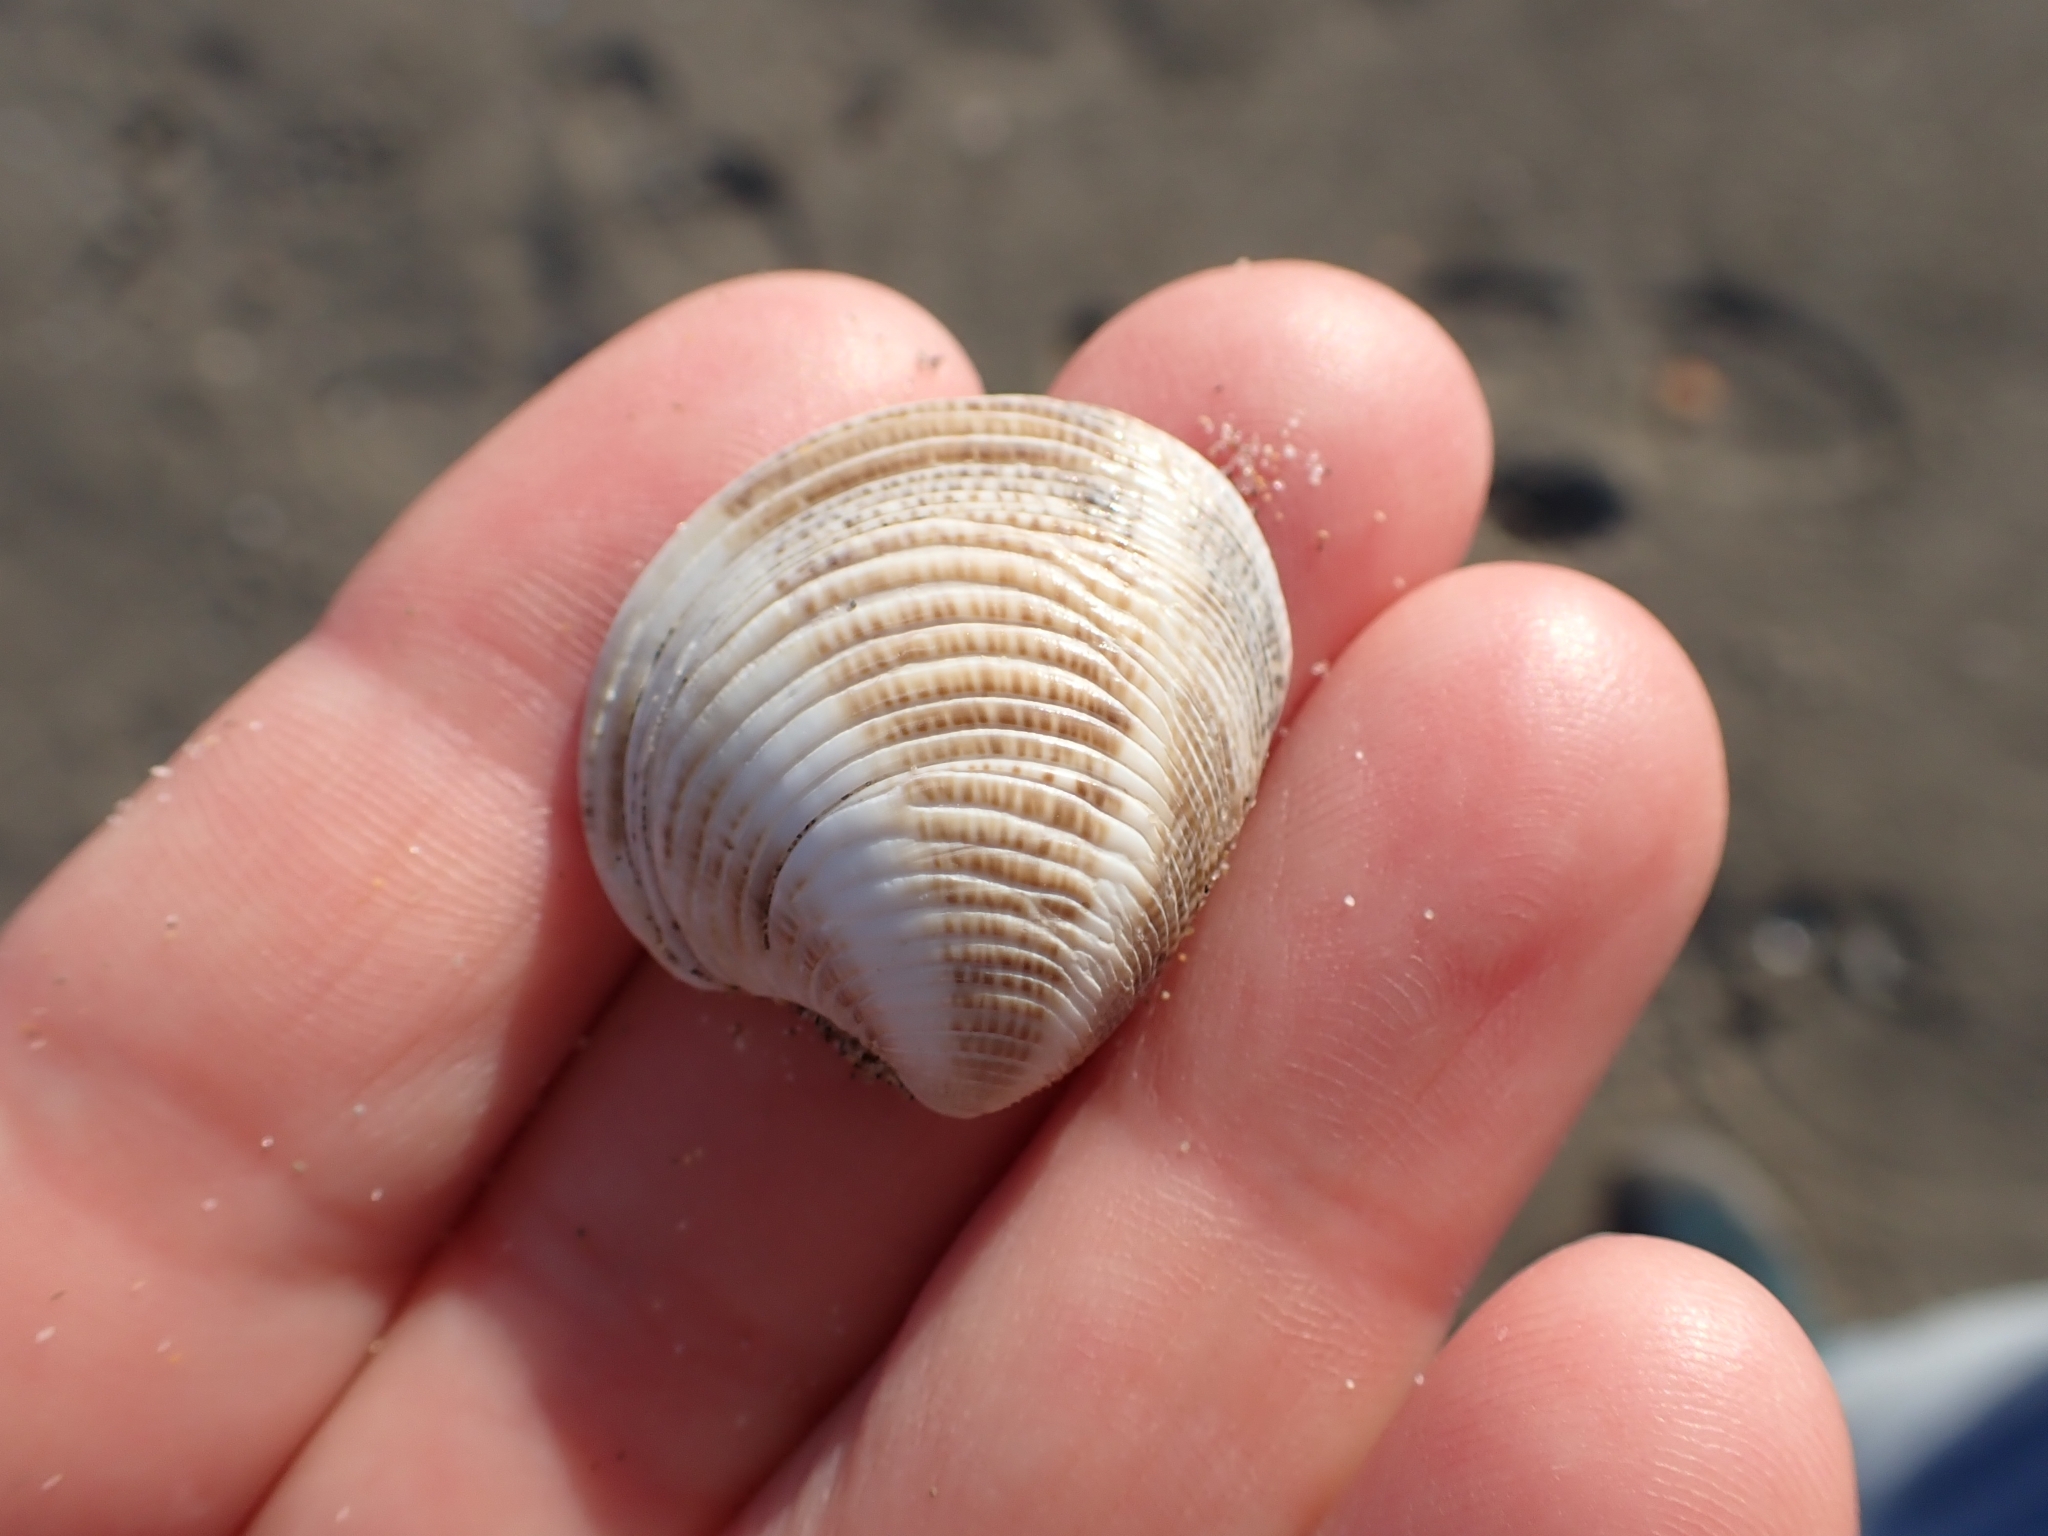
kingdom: Animalia
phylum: Mollusca
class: Bivalvia
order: Venerida
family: Veneridae
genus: Chamelea
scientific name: Chamelea gallina
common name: Chicken venus
